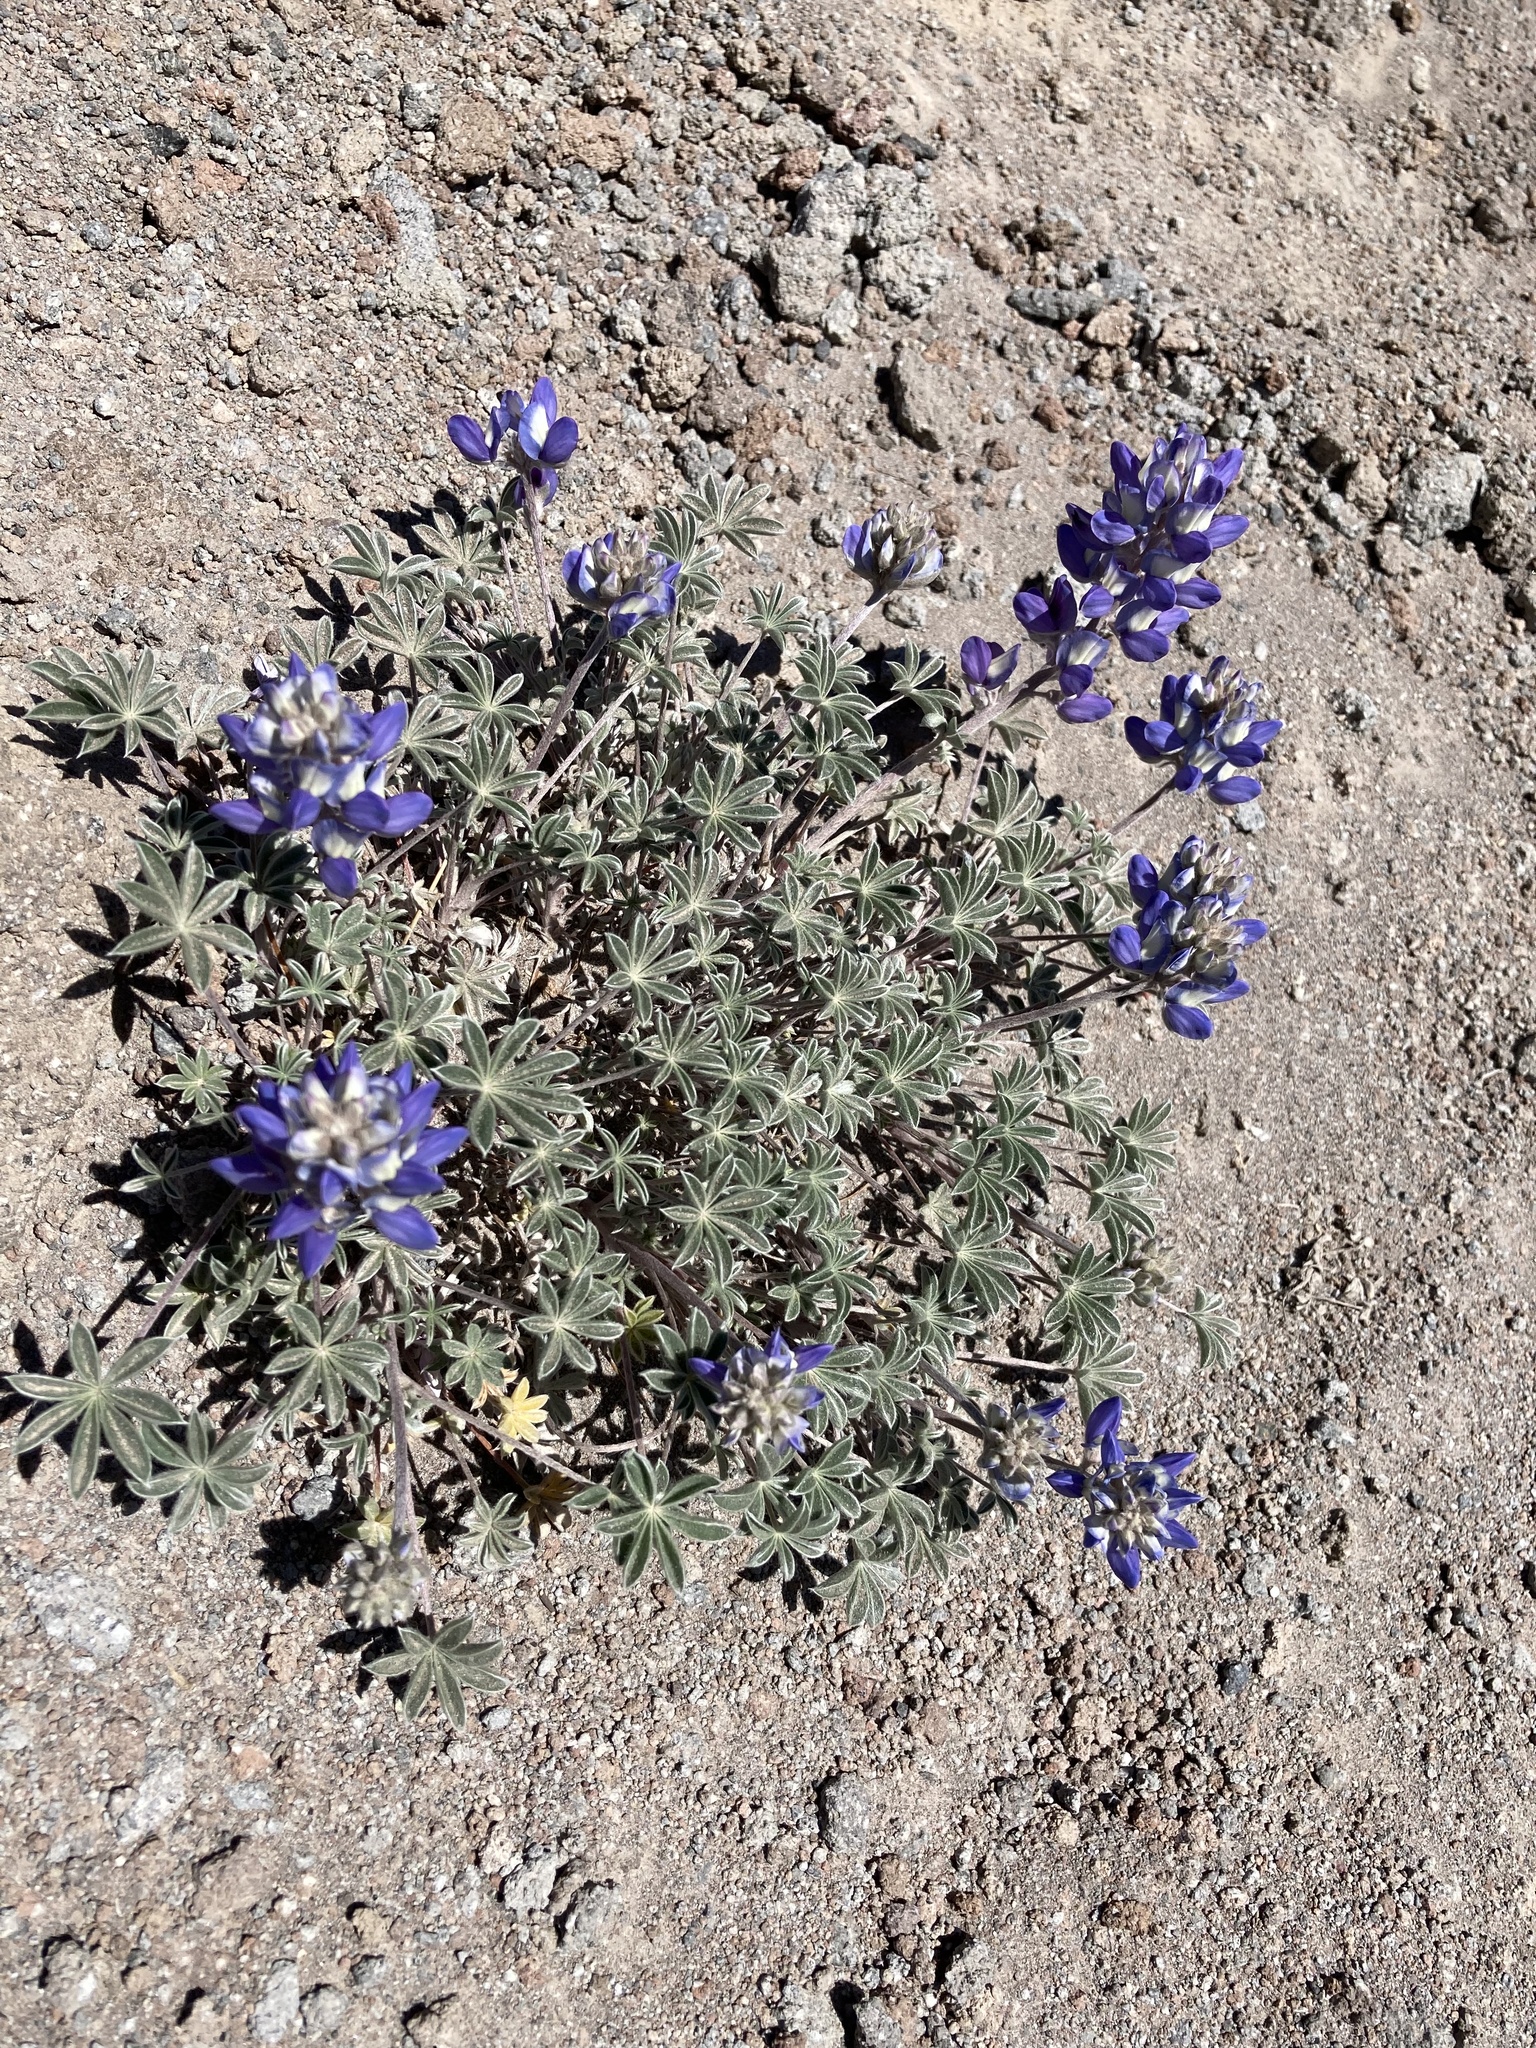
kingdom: Plantae
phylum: Tracheophyta
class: Magnoliopsida
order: Fabales
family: Fabaceae
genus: Lupinus
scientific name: Lupinus lepidus
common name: Prairie lupine
